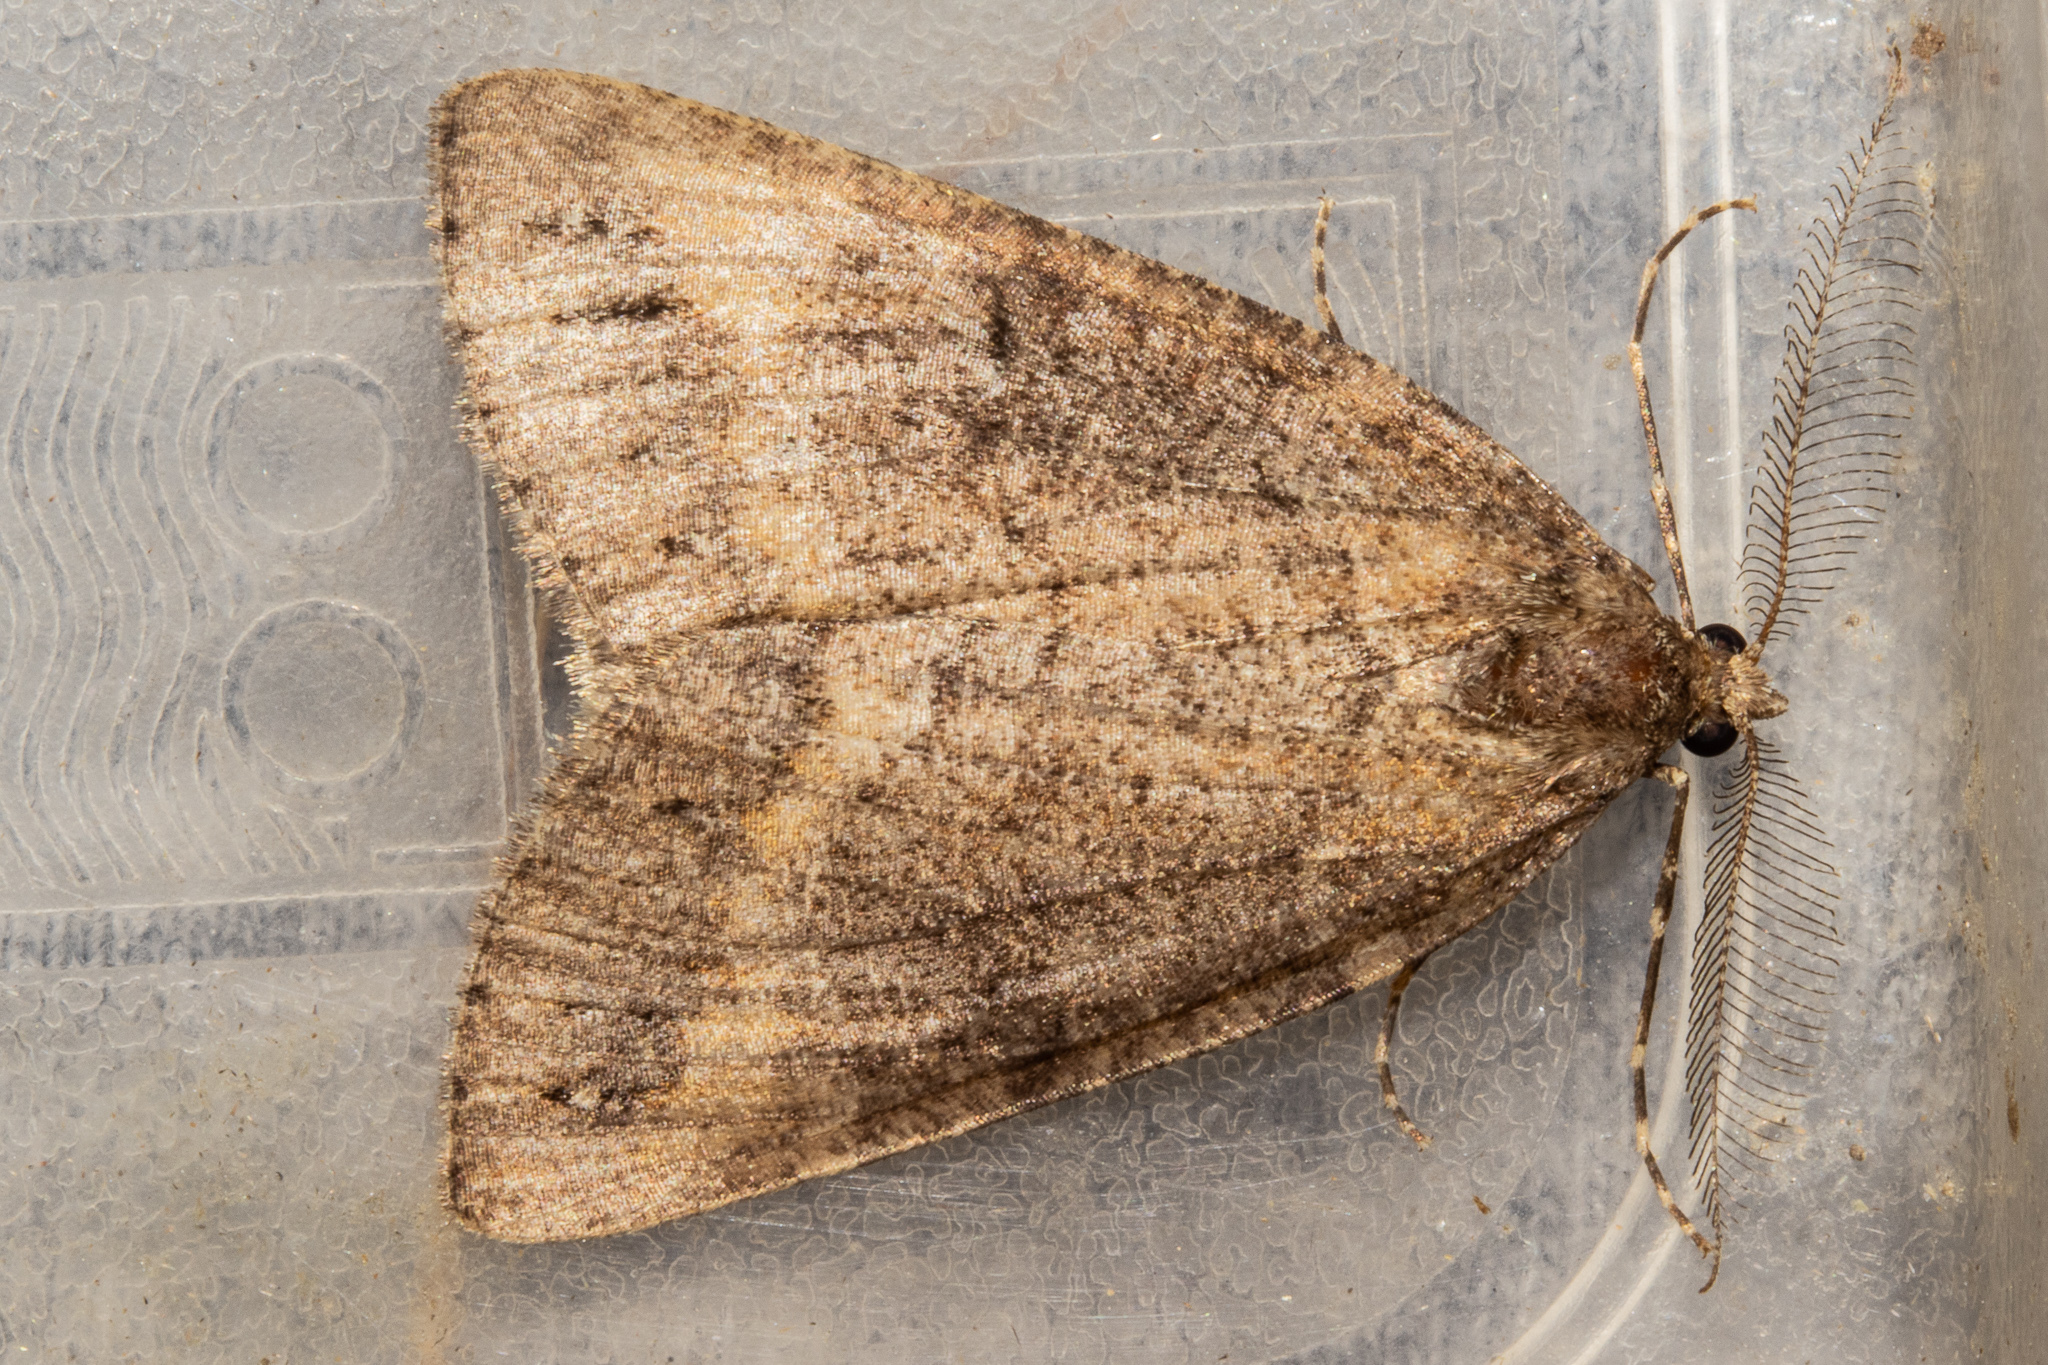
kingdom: Animalia
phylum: Arthropoda
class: Insecta
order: Lepidoptera
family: Geometridae
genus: Pseudocoremia
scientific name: Pseudocoremia berylia
